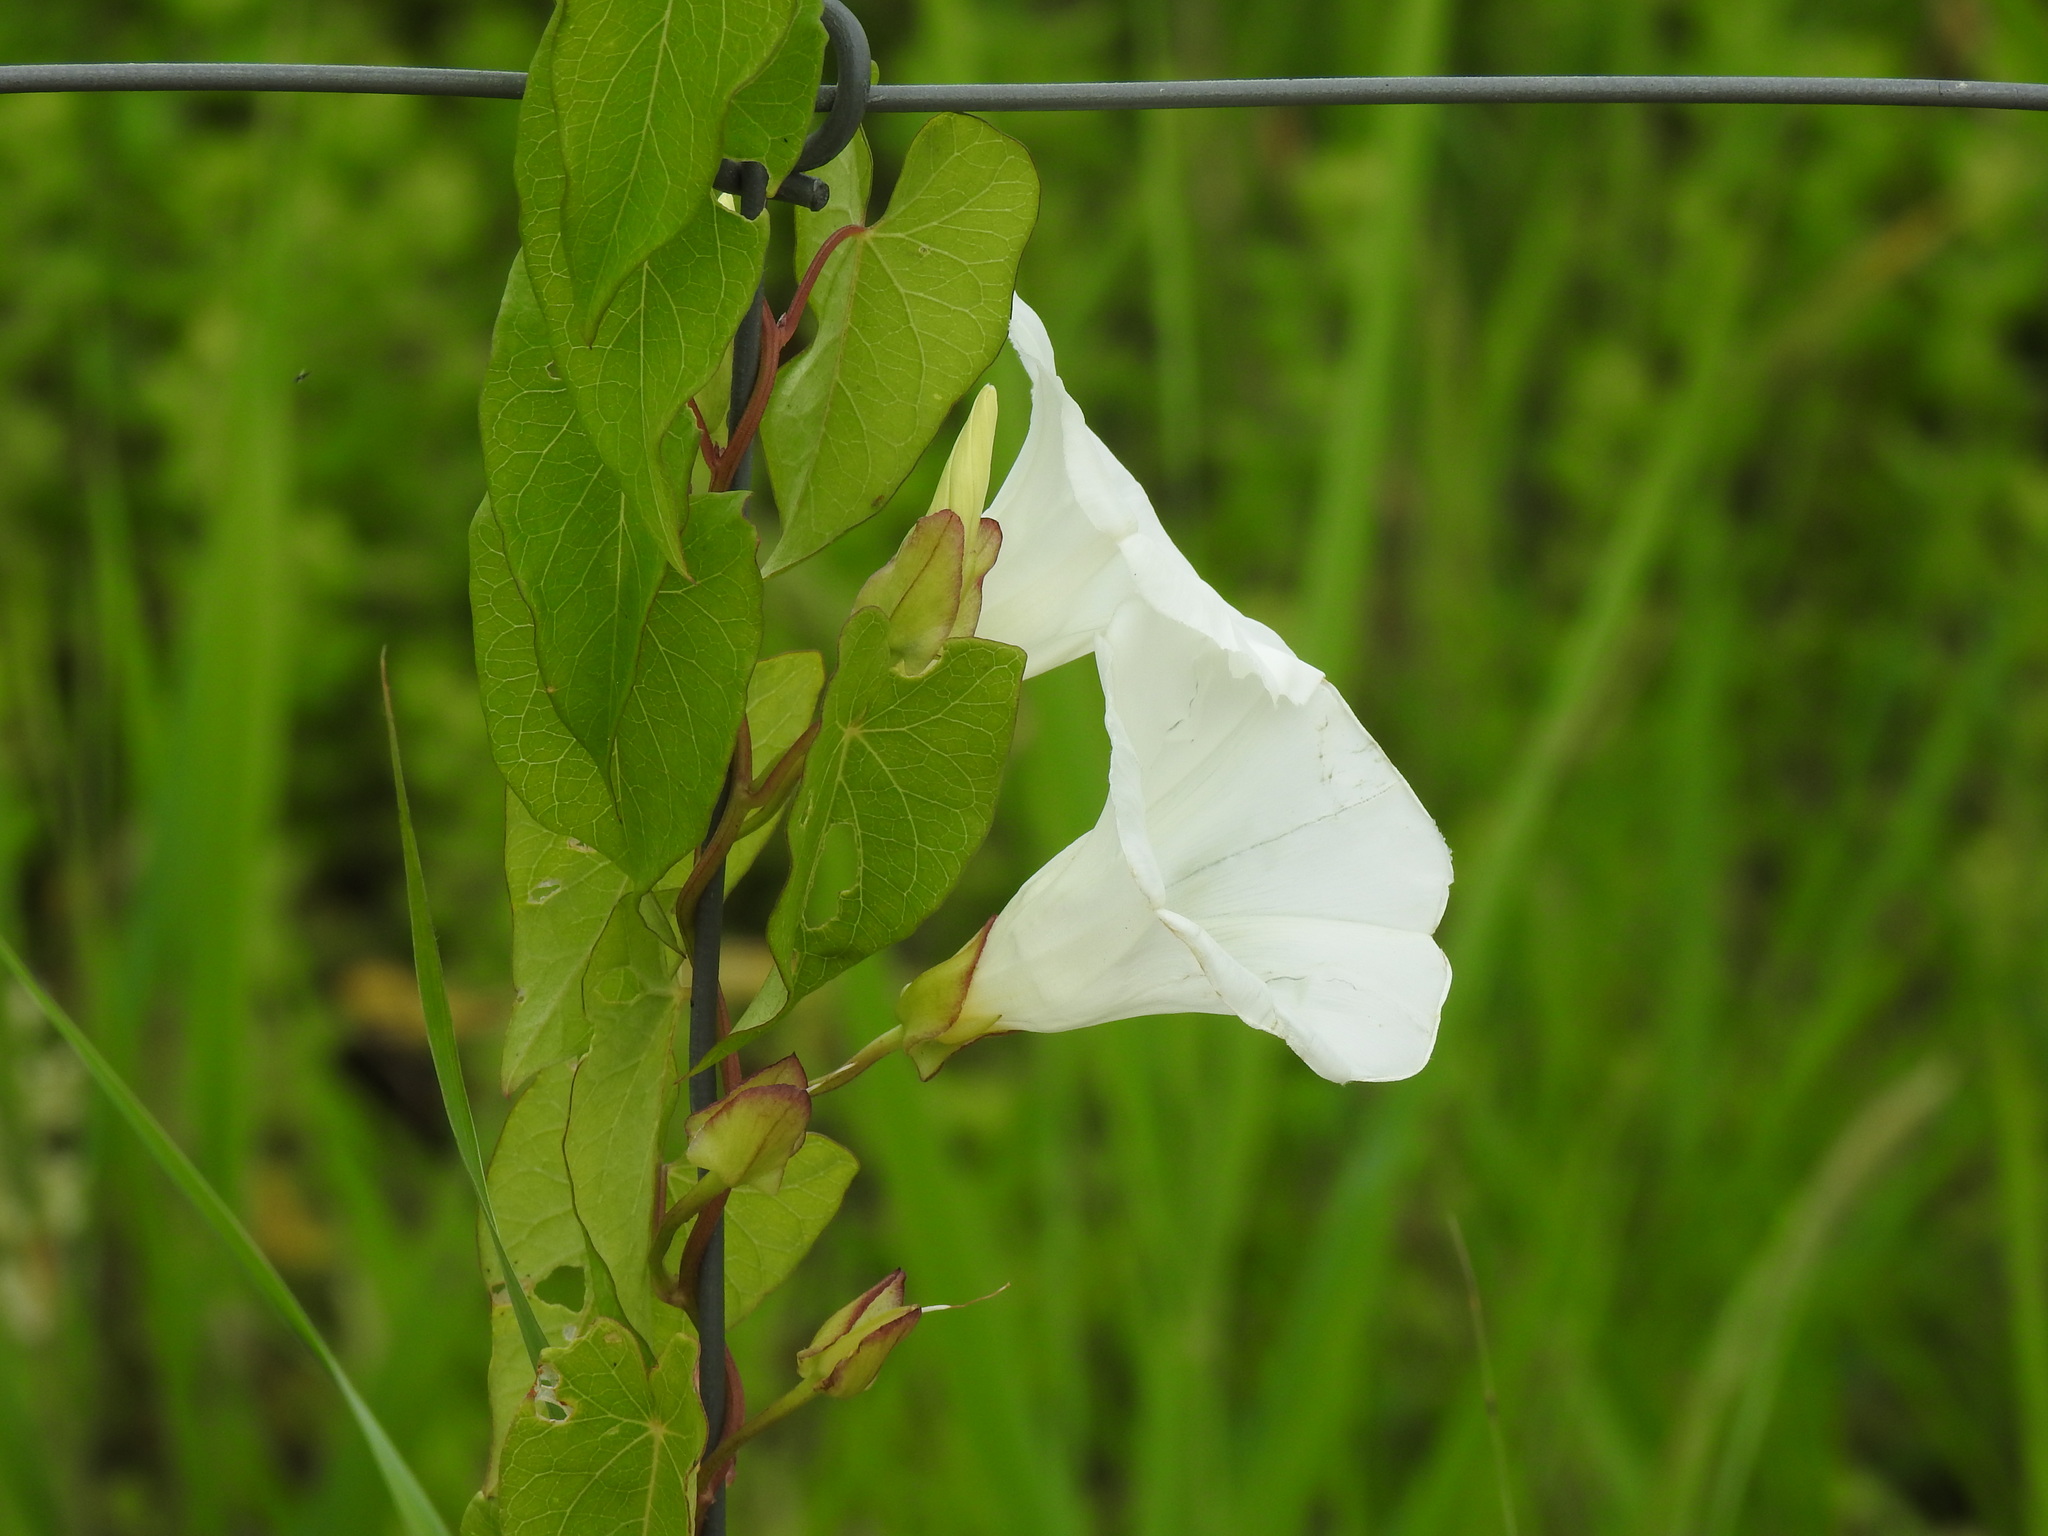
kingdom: Plantae
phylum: Tracheophyta
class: Magnoliopsida
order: Solanales
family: Convolvulaceae
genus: Calystegia
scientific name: Calystegia sepium
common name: Hedge bindweed
